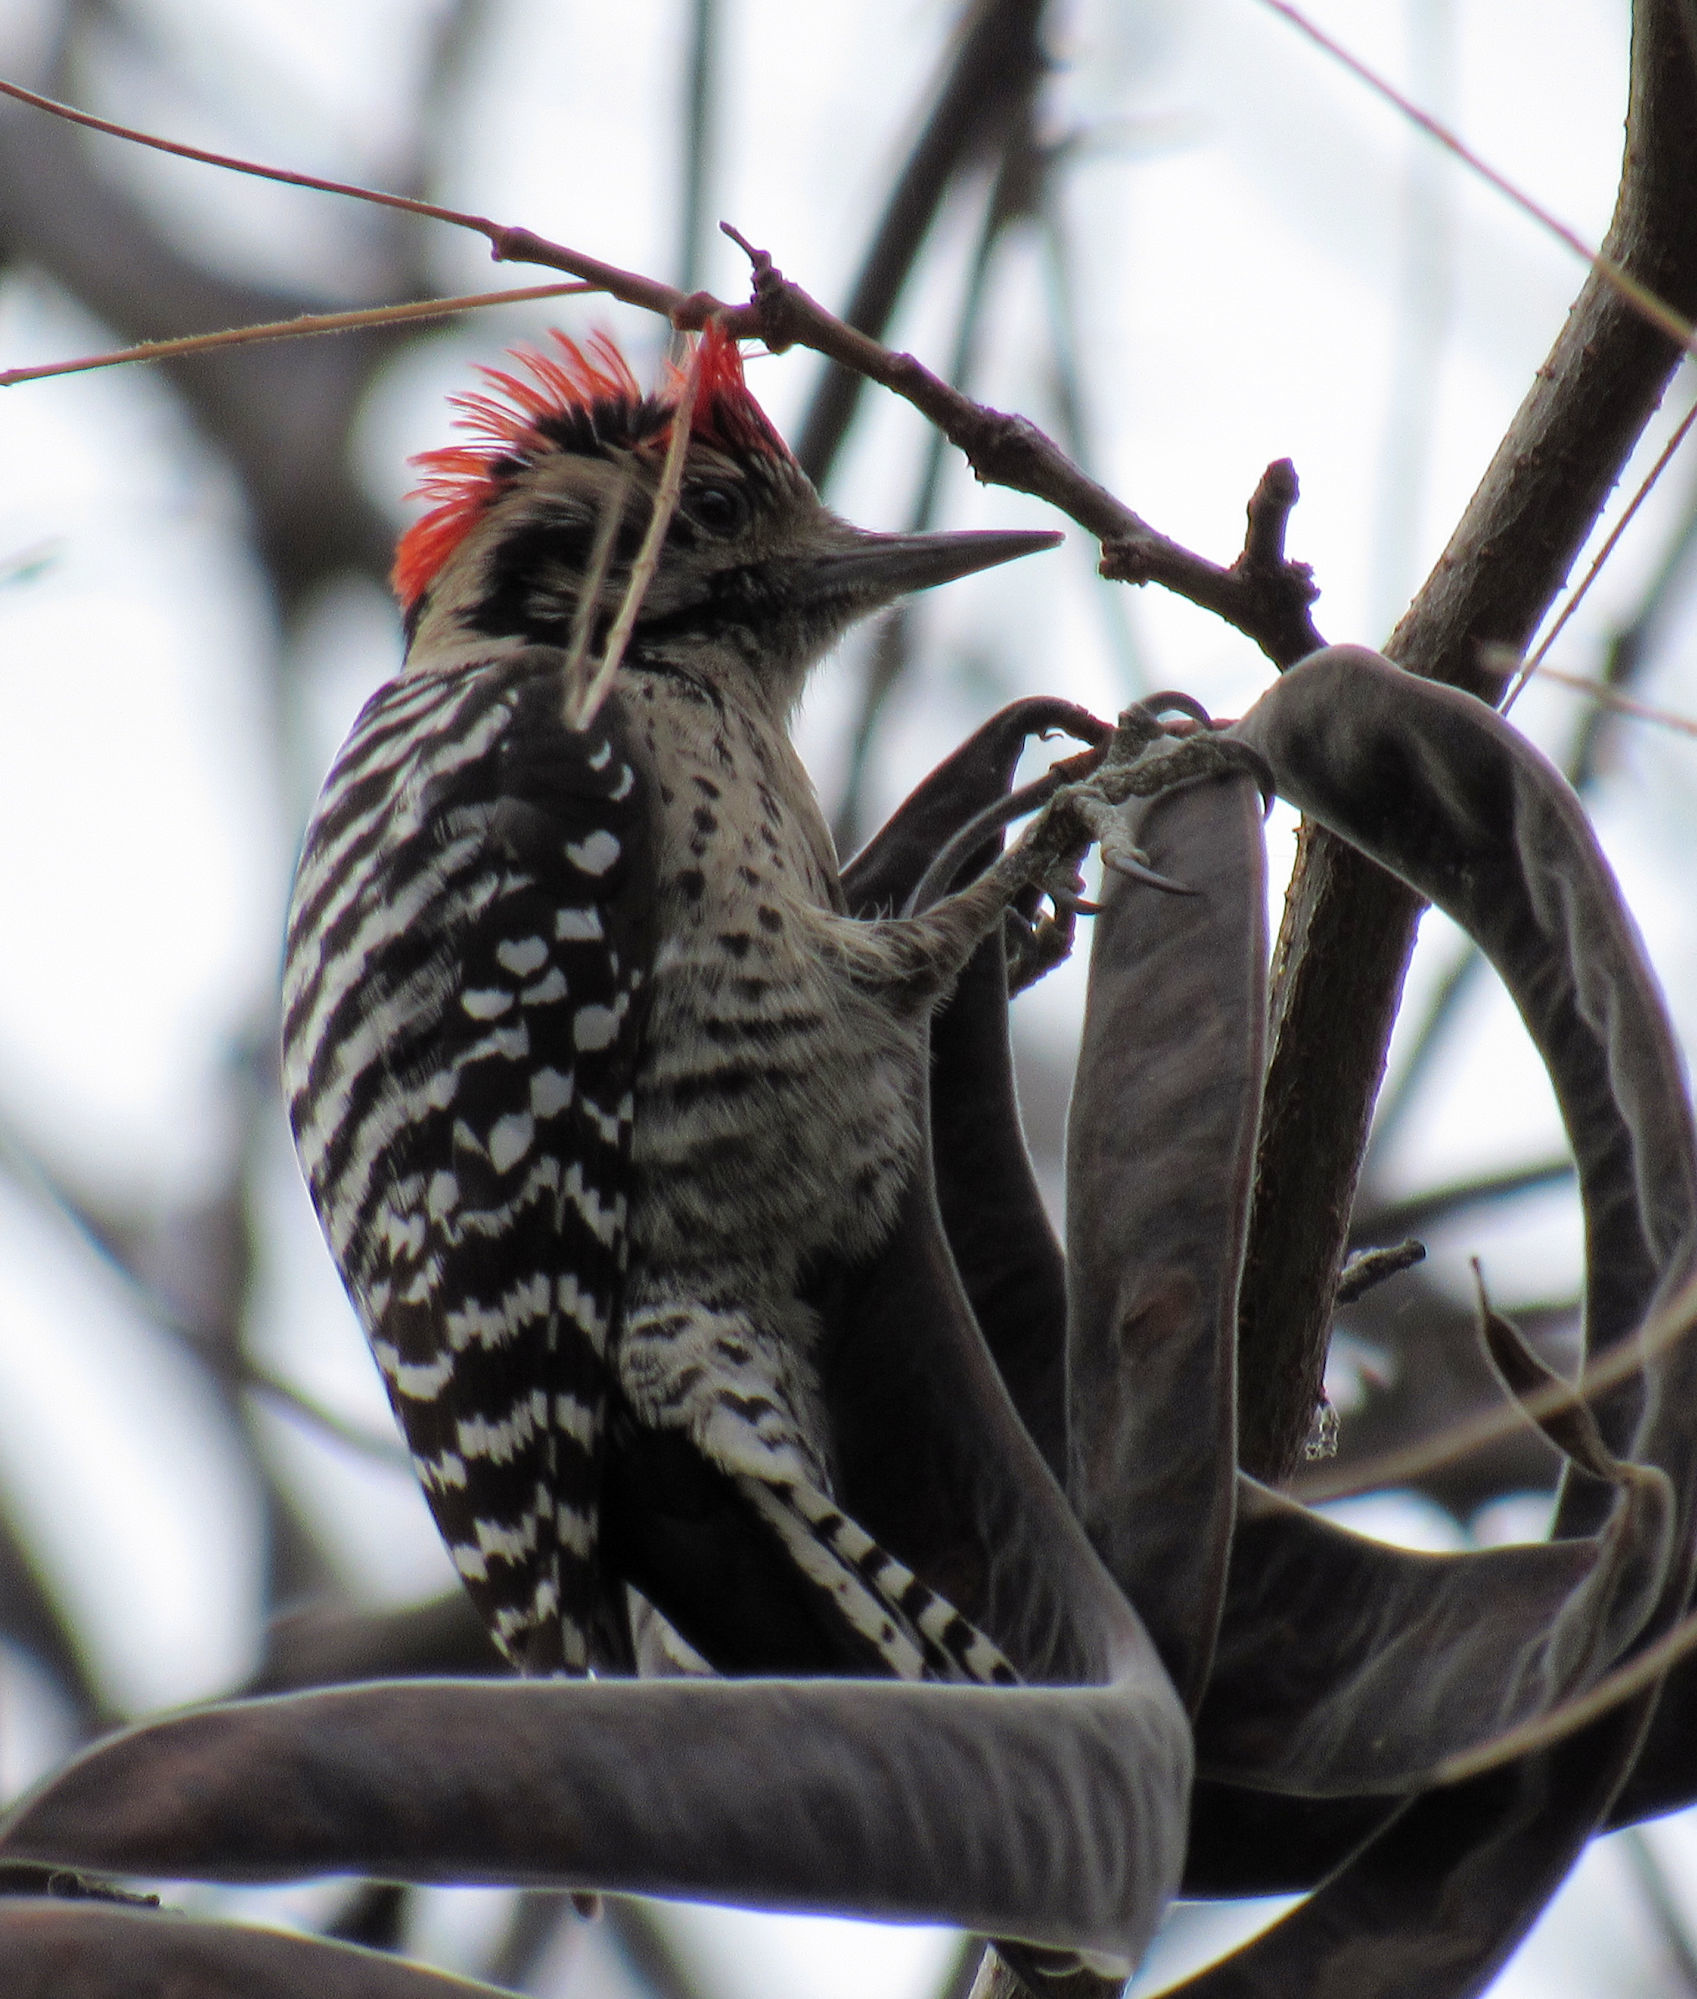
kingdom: Animalia
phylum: Chordata
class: Aves
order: Piciformes
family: Picidae
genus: Dryobates
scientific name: Dryobates scalaris
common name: Ladder-backed woodpecker
